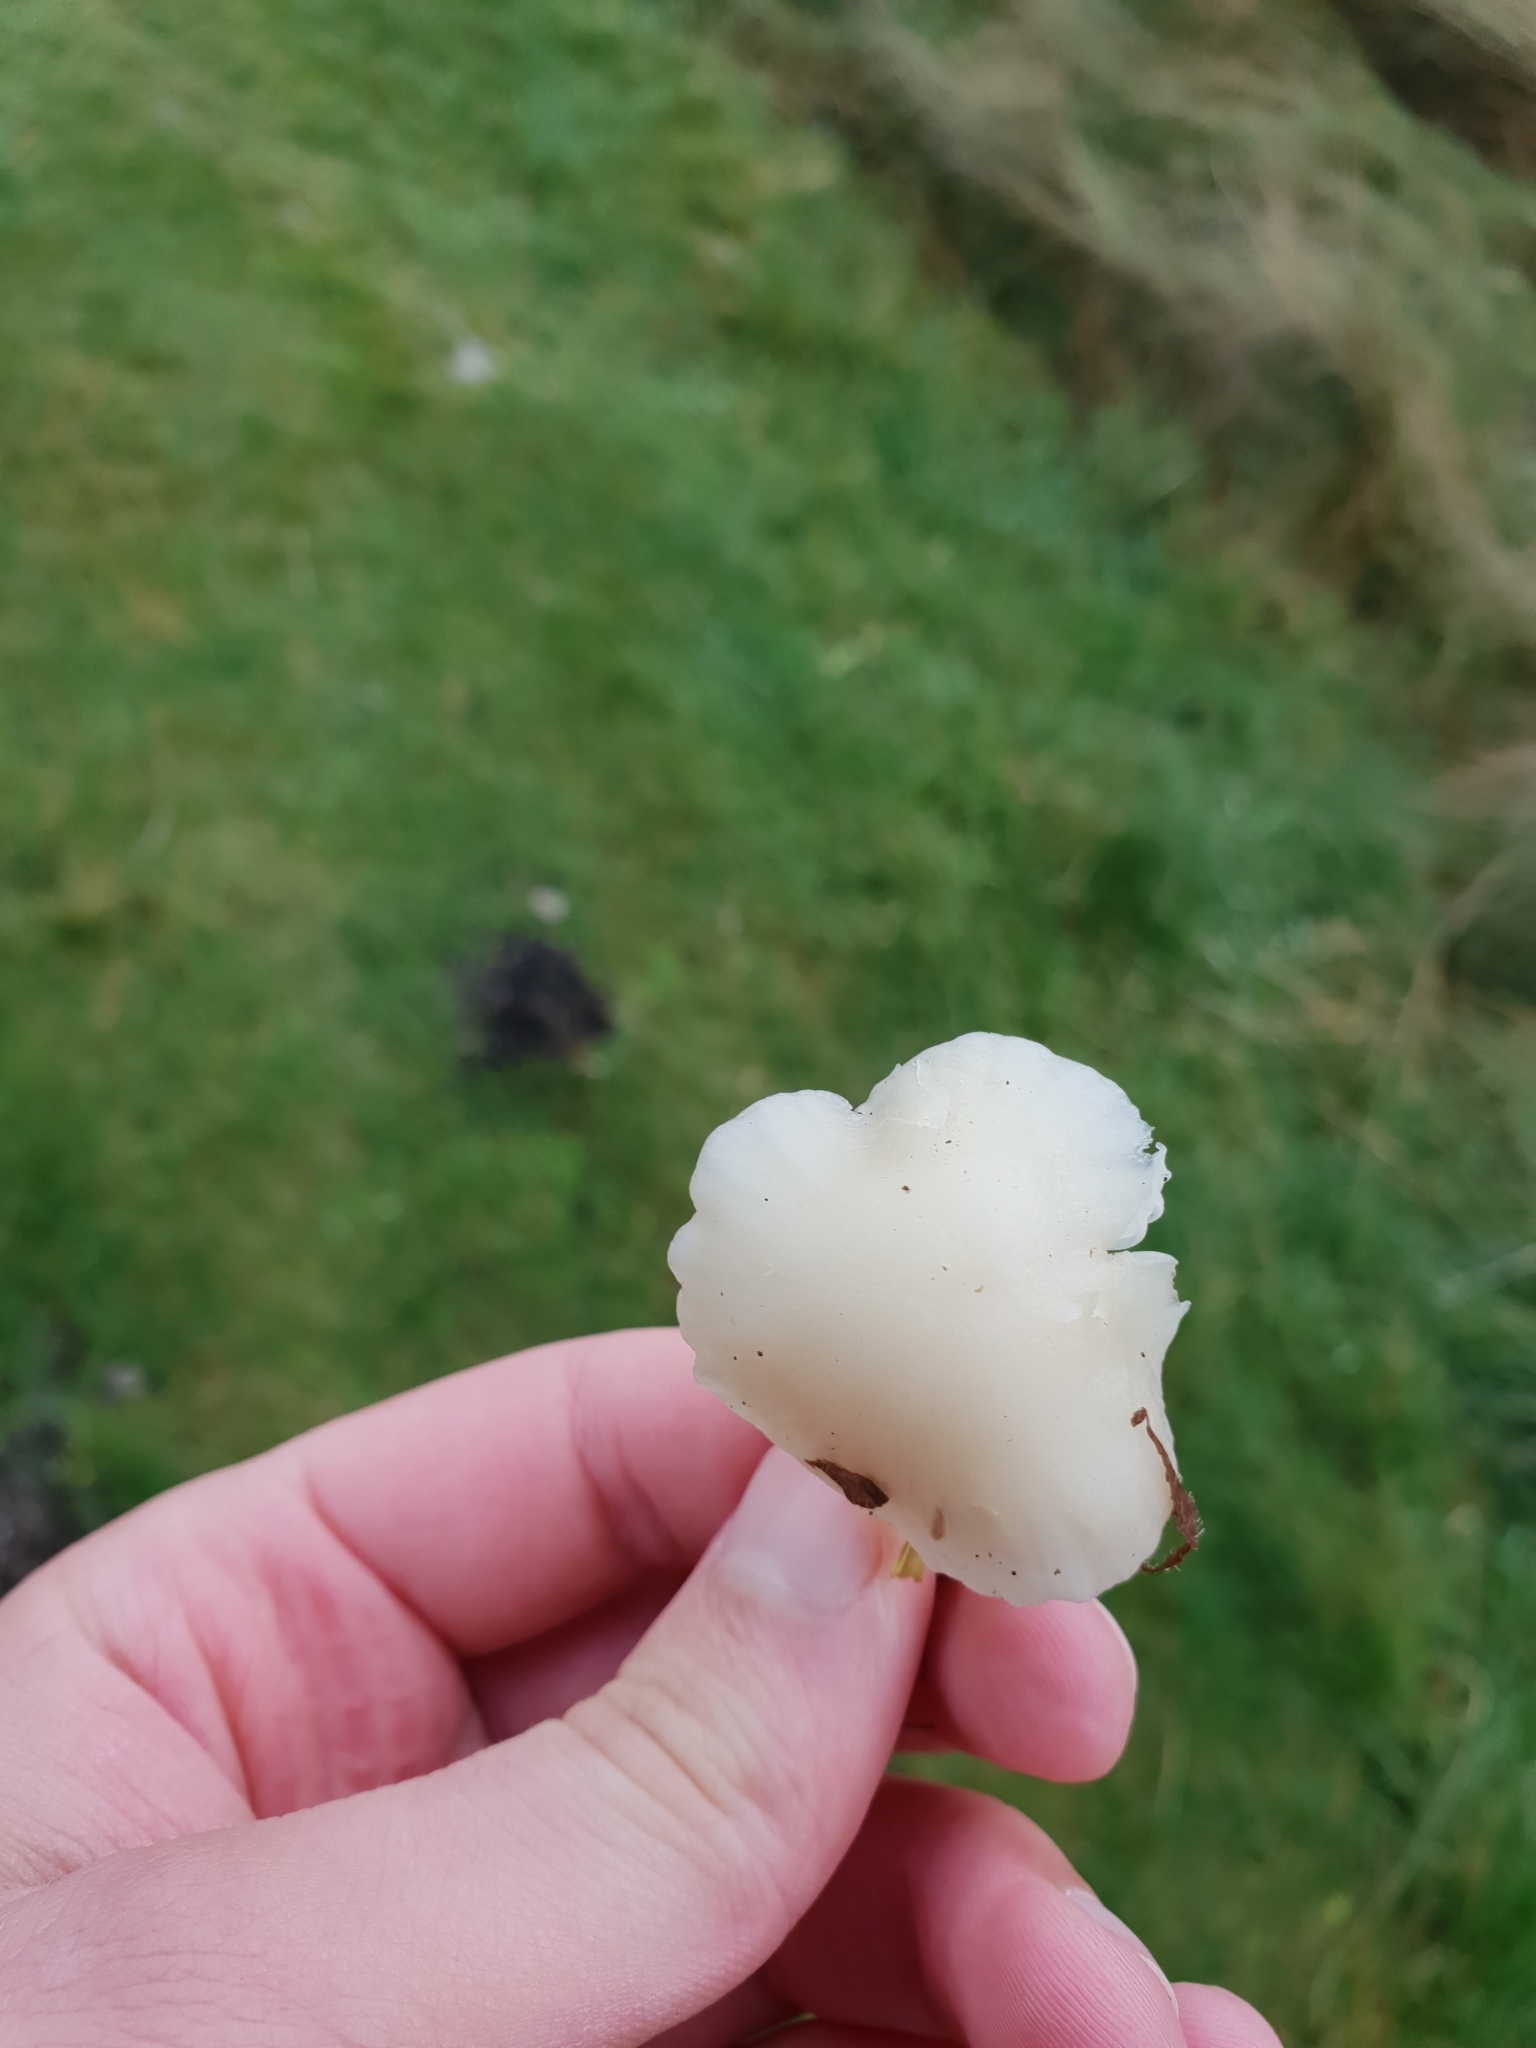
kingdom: Fungi
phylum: Basidiomycota
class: Agaricomycetes
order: Agaricales
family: Hygrophoraceae
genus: Cuphophyllus
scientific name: Cuphophyllus virgineus
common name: Snowy waxcap
